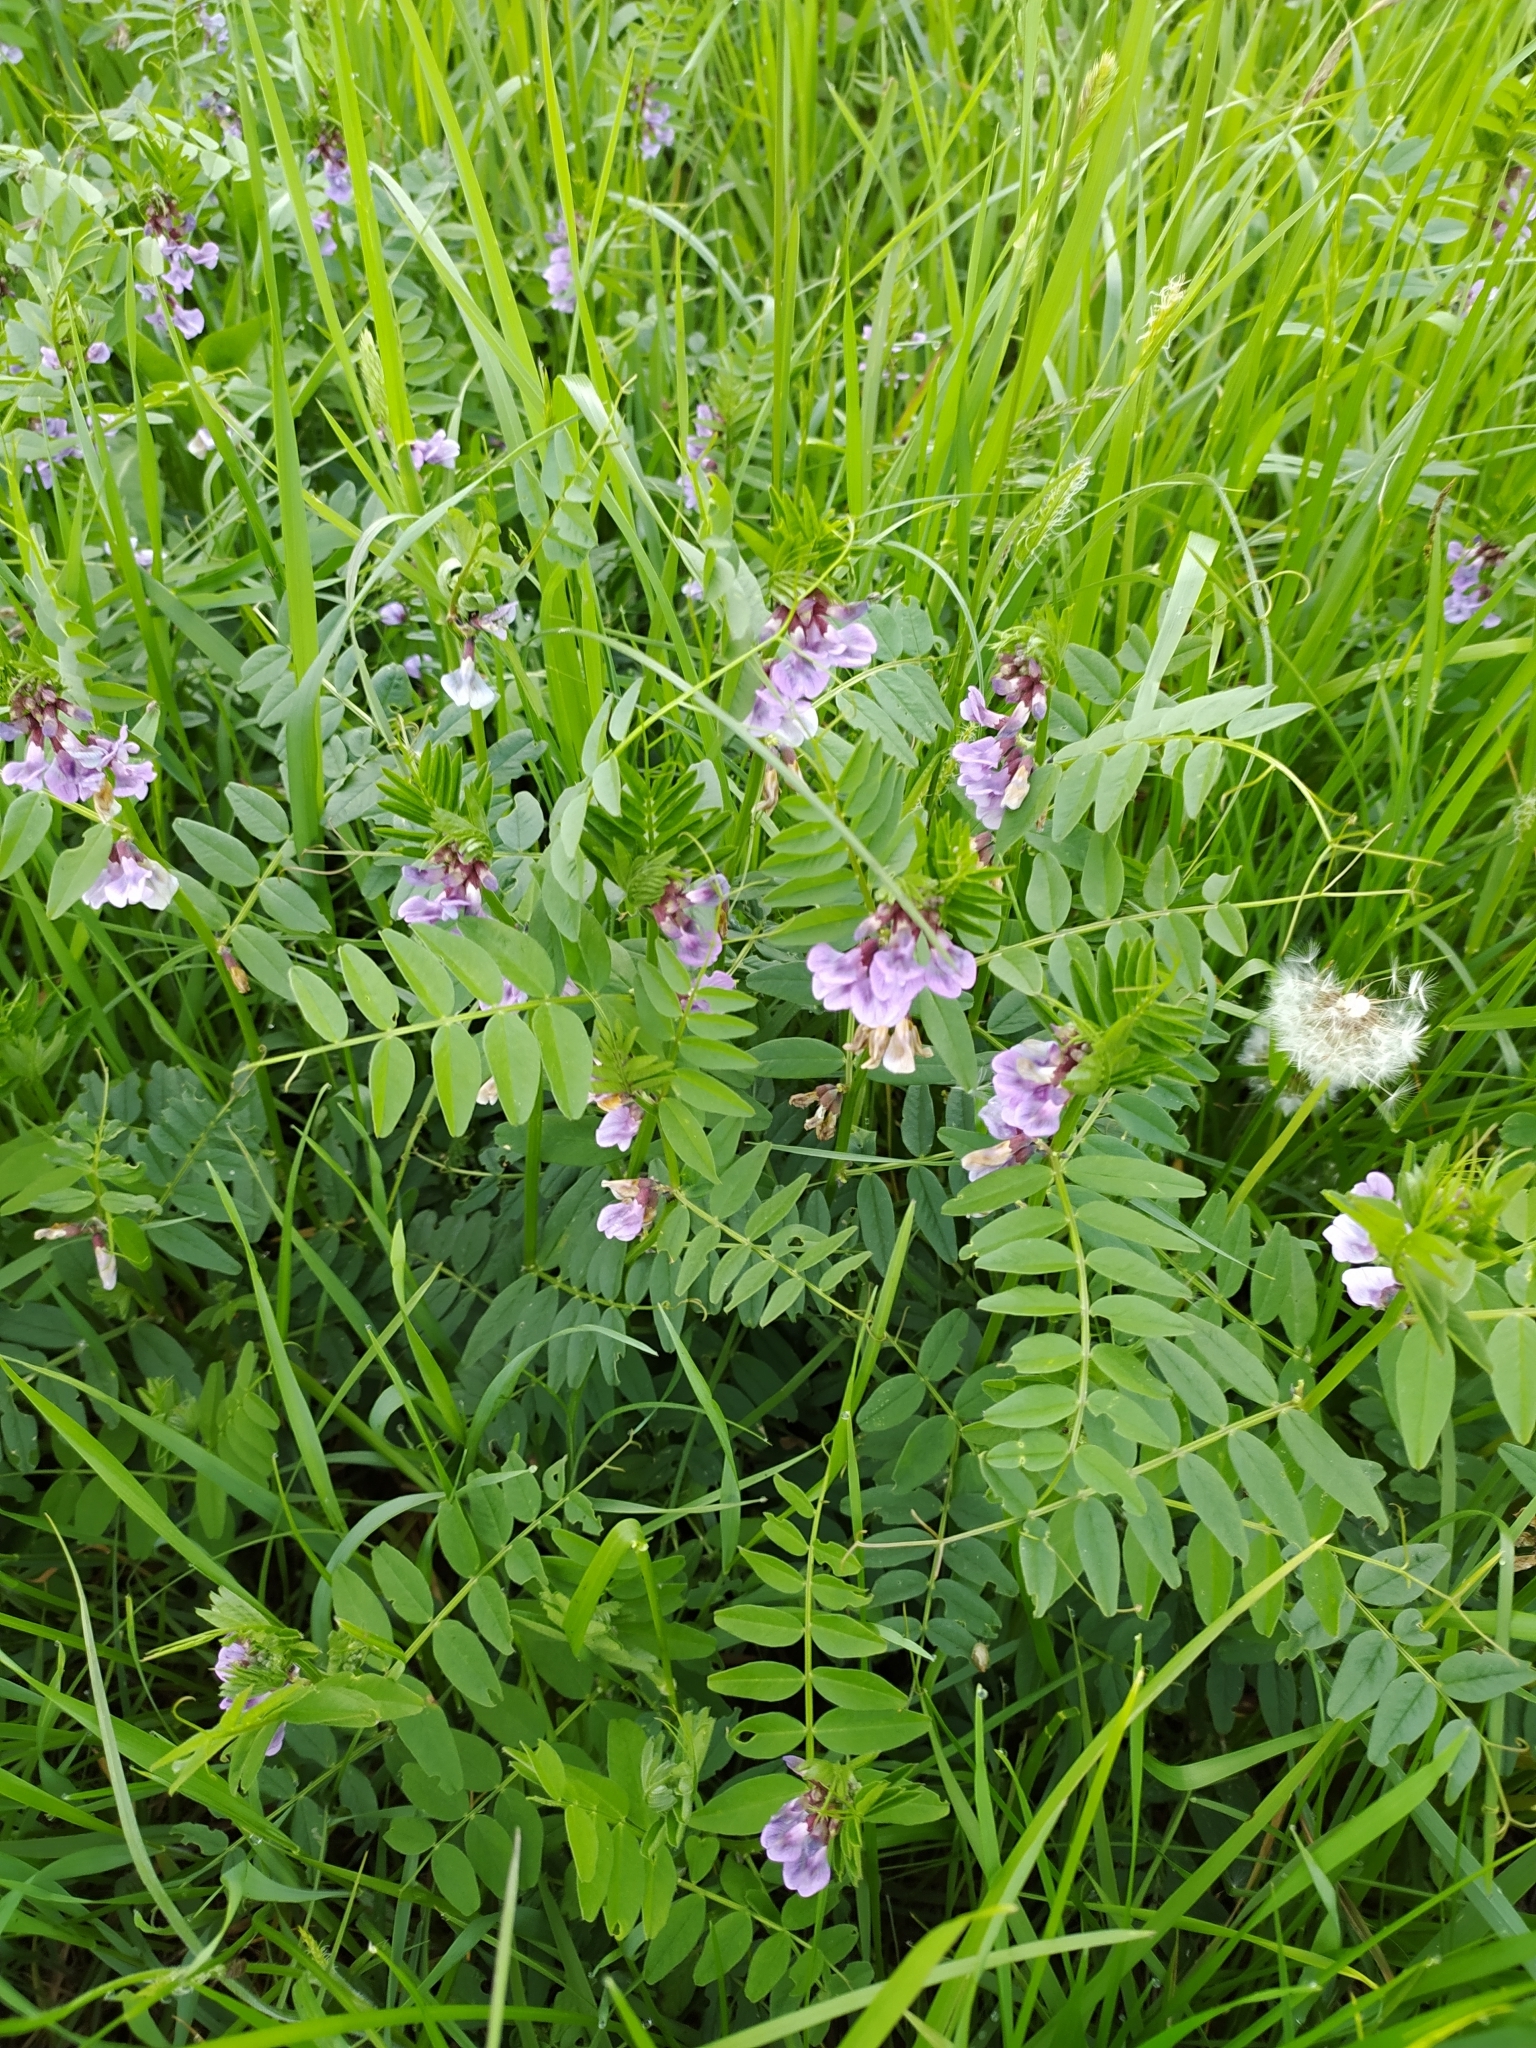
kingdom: Plantae
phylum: Tracheophyta
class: Magnoliopsida
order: Fabales
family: Fabaceae
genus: Vicia
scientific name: Vicia sepium
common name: Bush vetch
